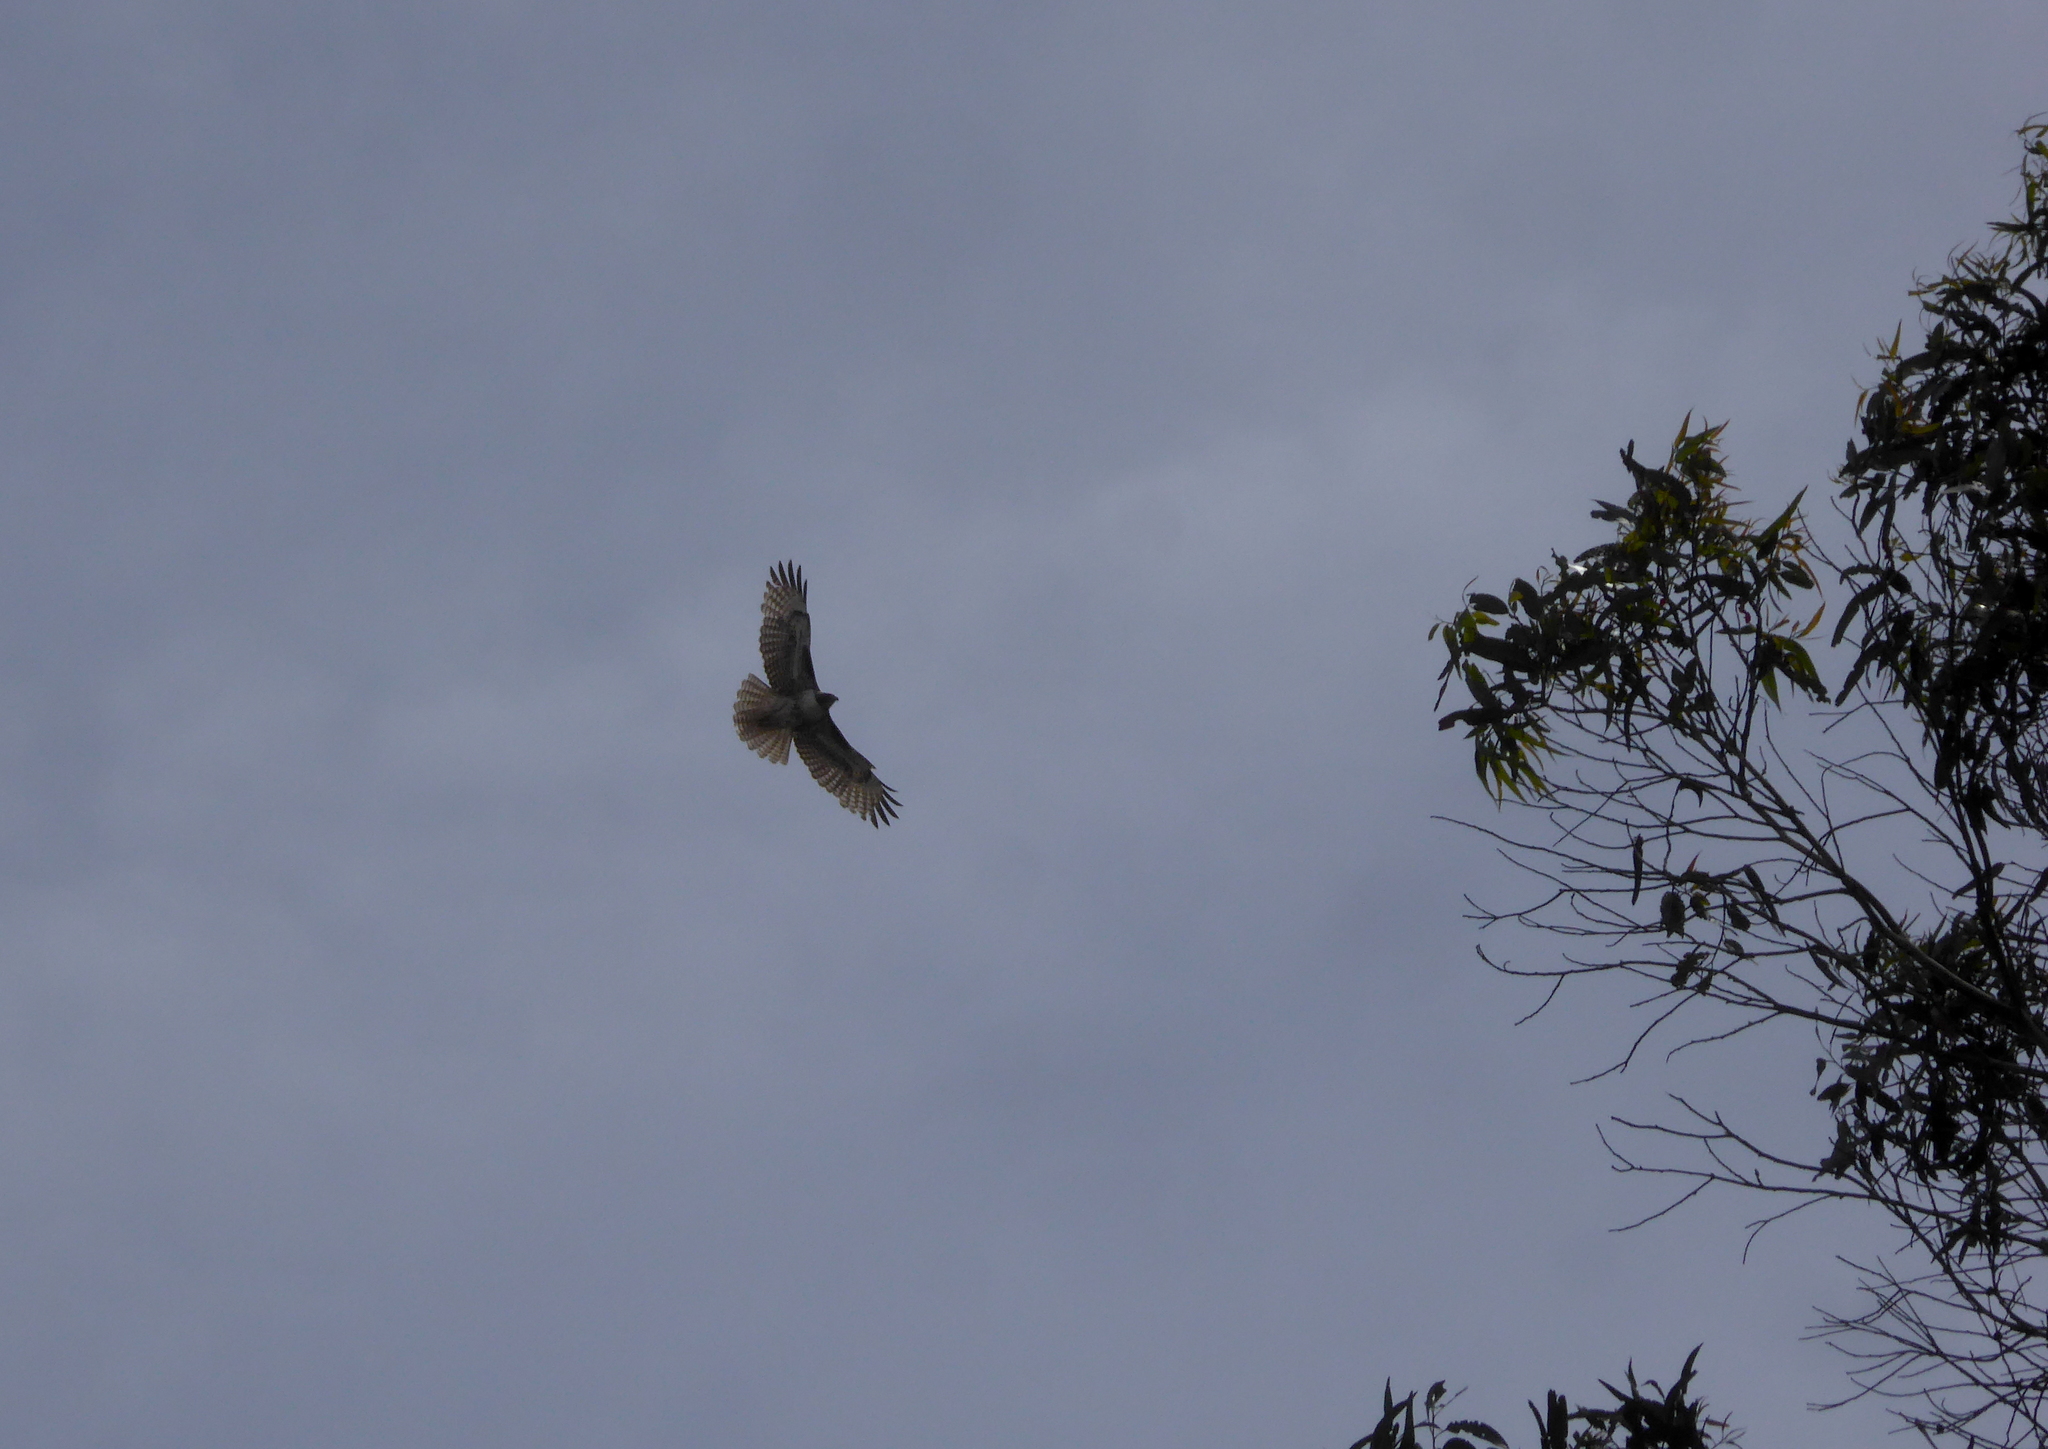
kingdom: Animalia
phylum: Chordata
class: Aves
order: Accipitriformes
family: Accipitridae
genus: Buteo
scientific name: Buteo jamaicensis
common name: Red-tailed hawk
